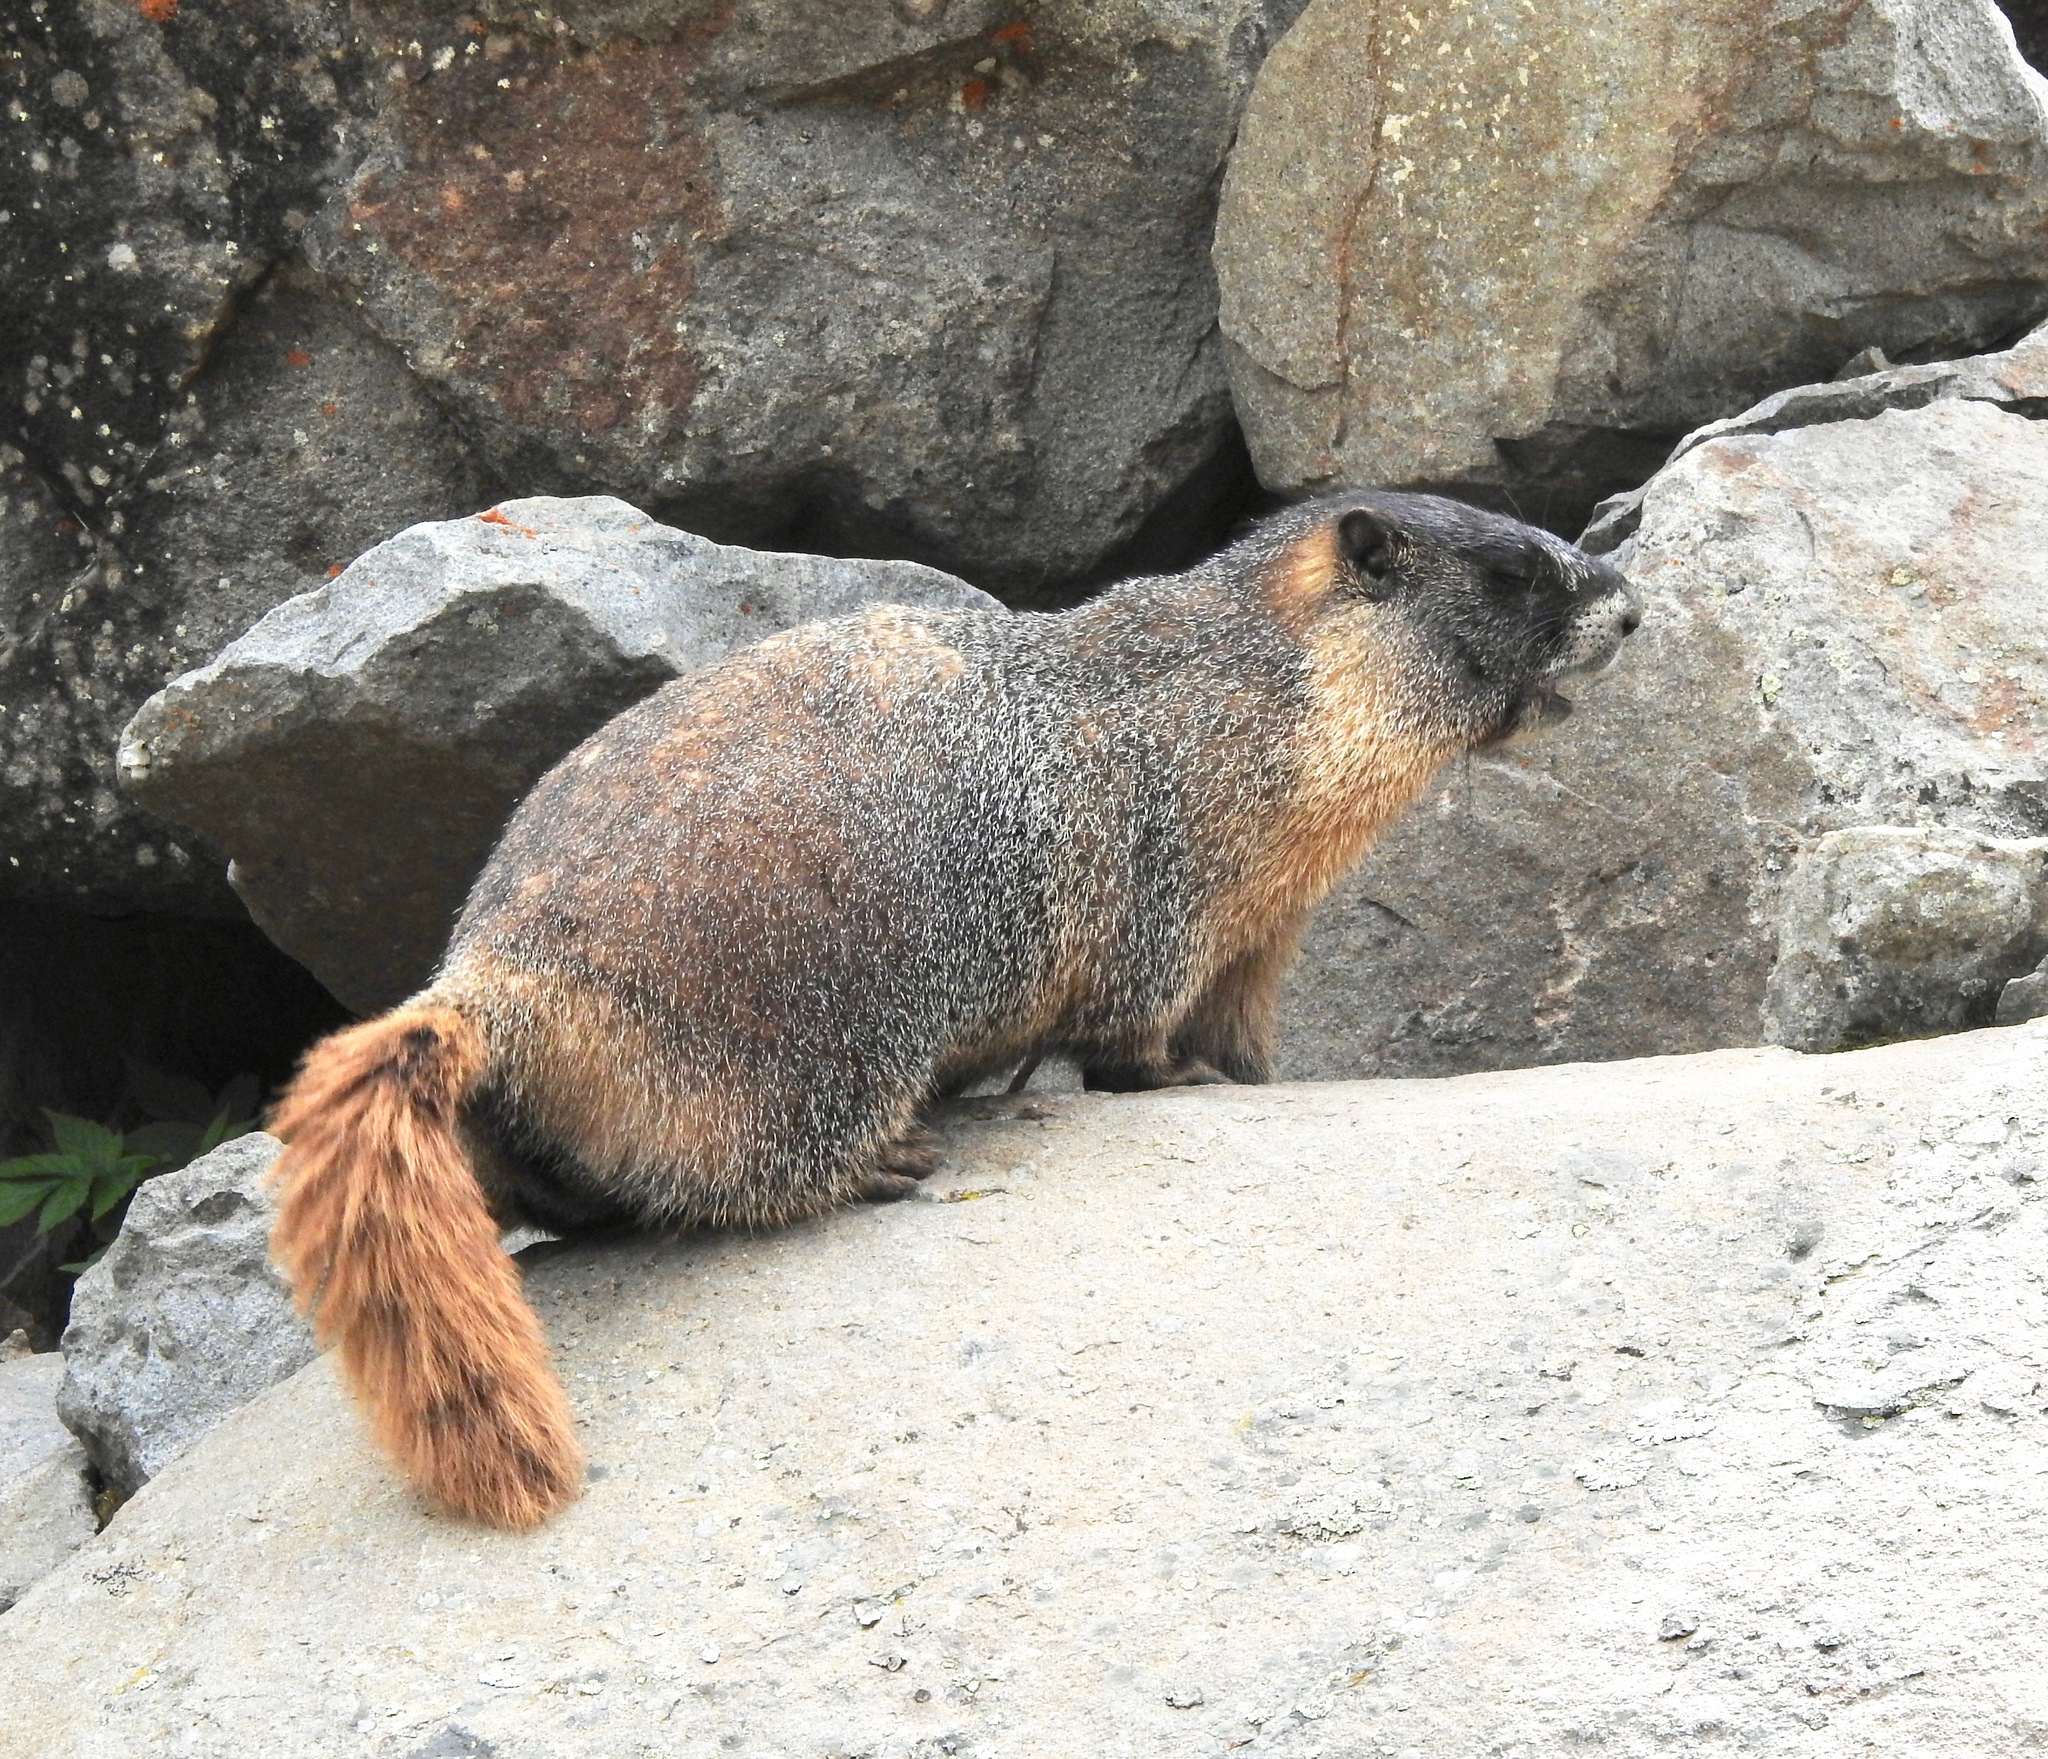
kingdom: Animalia
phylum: Chordata
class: Mammalia
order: Rodentia
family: Sciuridae
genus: Marmota
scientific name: Marmota flaviventris
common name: Yellow-bellied marmot
